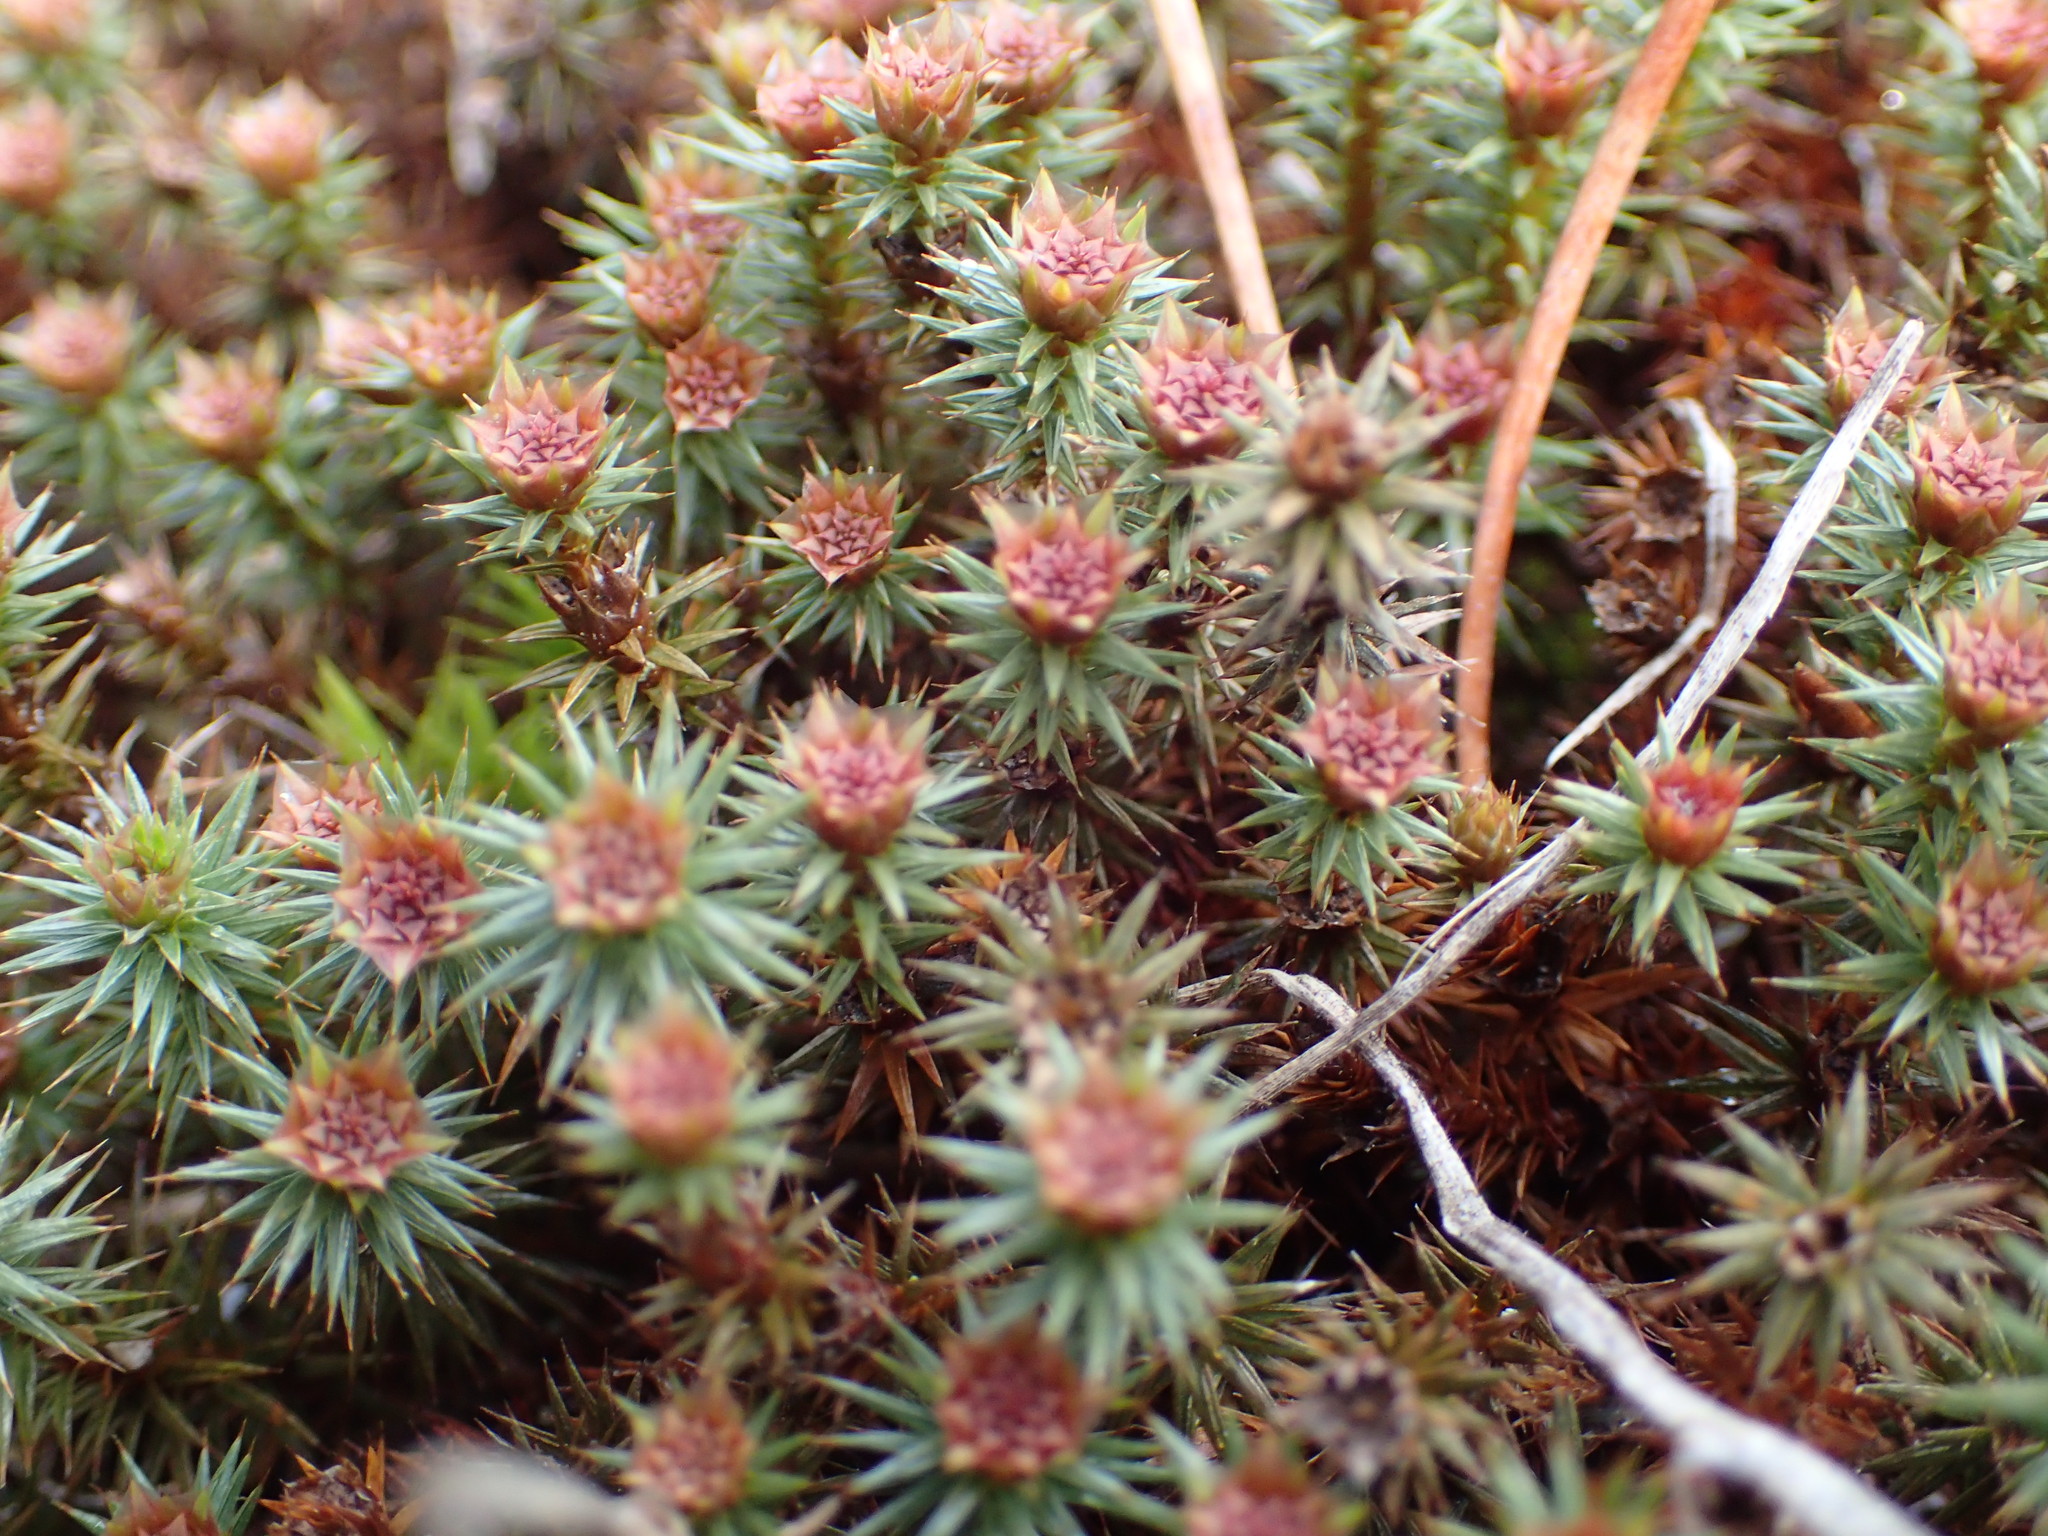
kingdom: Plantae
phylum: Bryophyta
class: Polytrichopsida
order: Polytrichales
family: Polytrichaceae
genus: Polytrichum
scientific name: Polytrichum juniperinum
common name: Juniper haircap moss
